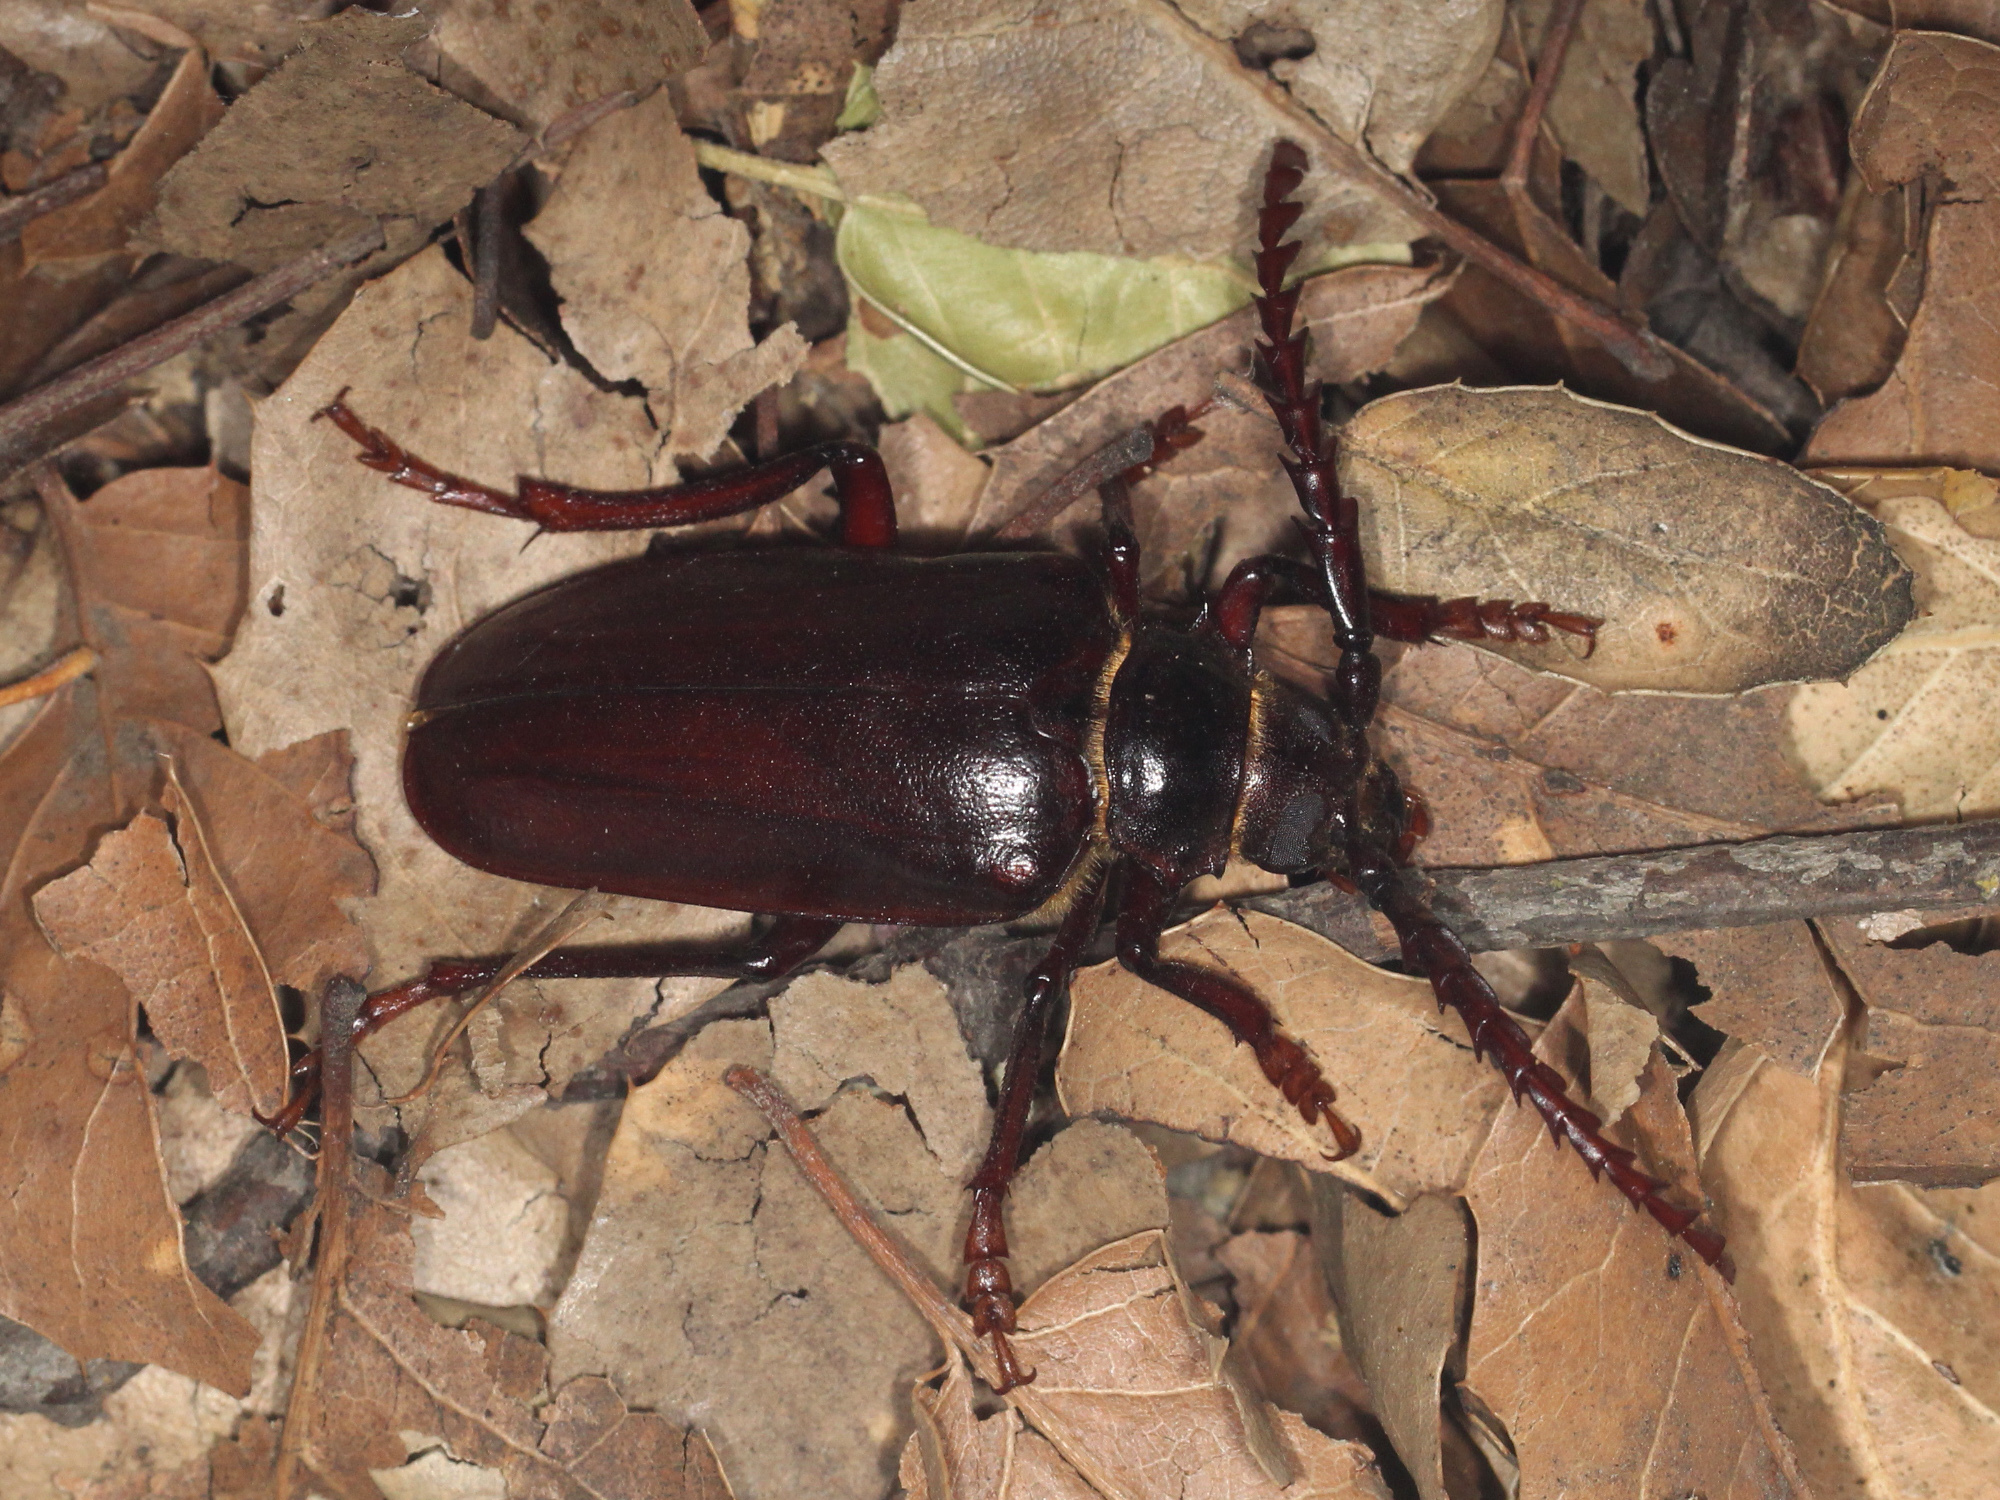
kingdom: Animalia
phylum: Arthropoda
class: Insecta
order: Coleoptera
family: Cerambycidae
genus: Prionus
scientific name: Prionus californicus
